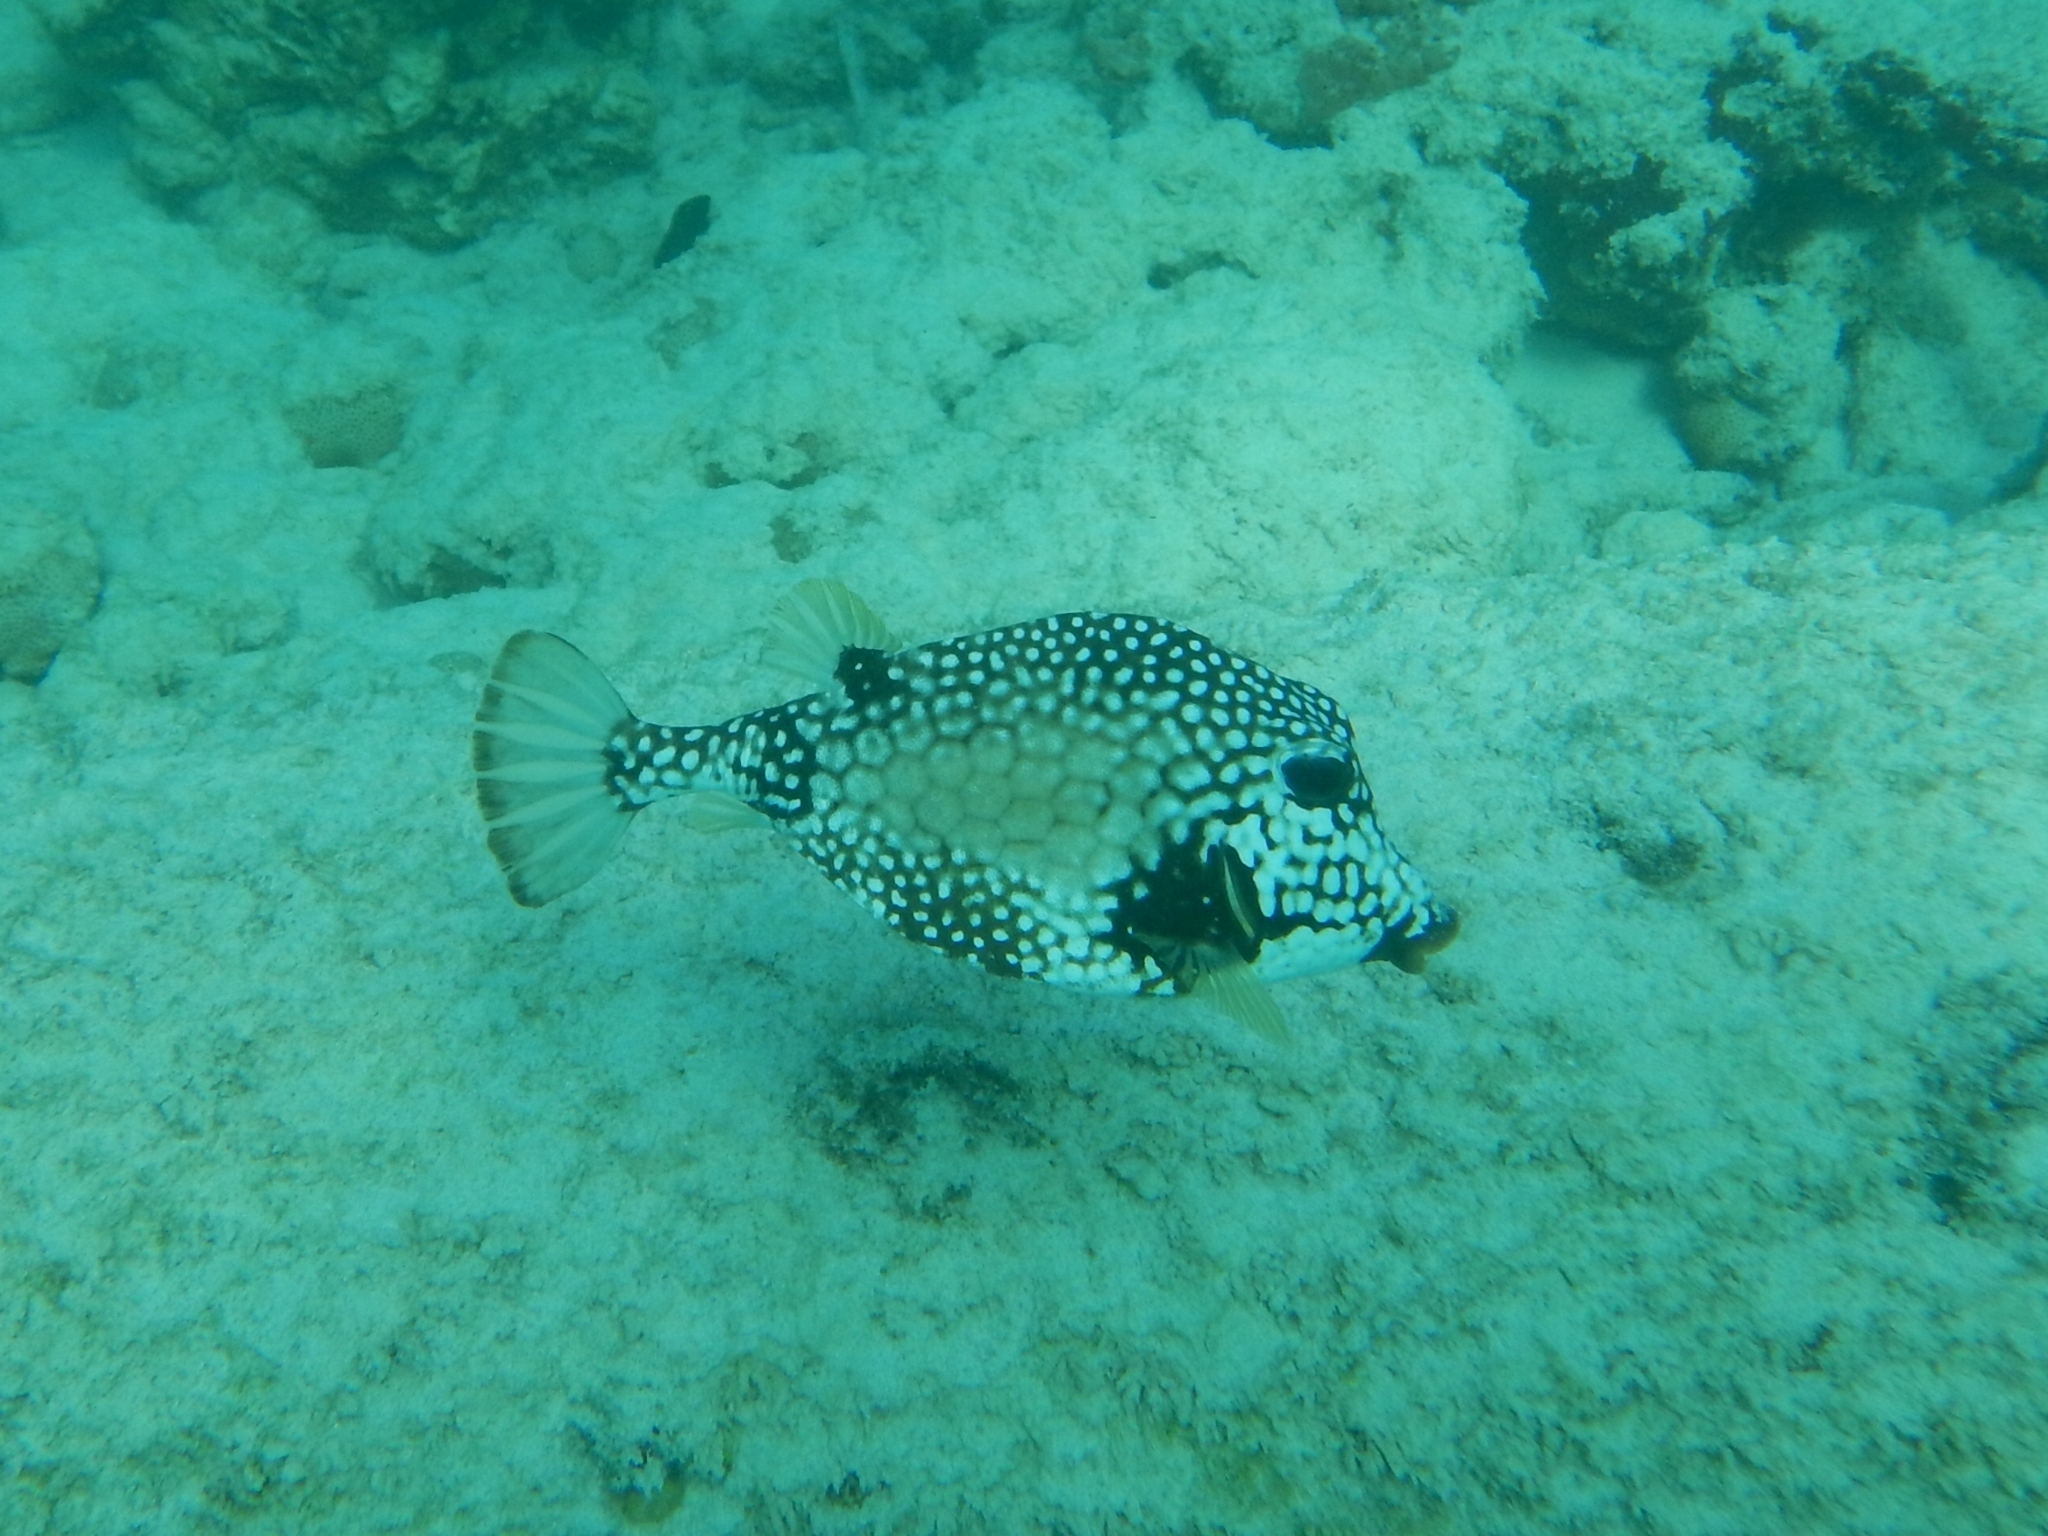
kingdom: Animalia
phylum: Chordata
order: Tetraodontiformes
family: Ostraciidae
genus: Lactophrys
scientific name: Lactophrys triqueter
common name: Smooth trunkfish
